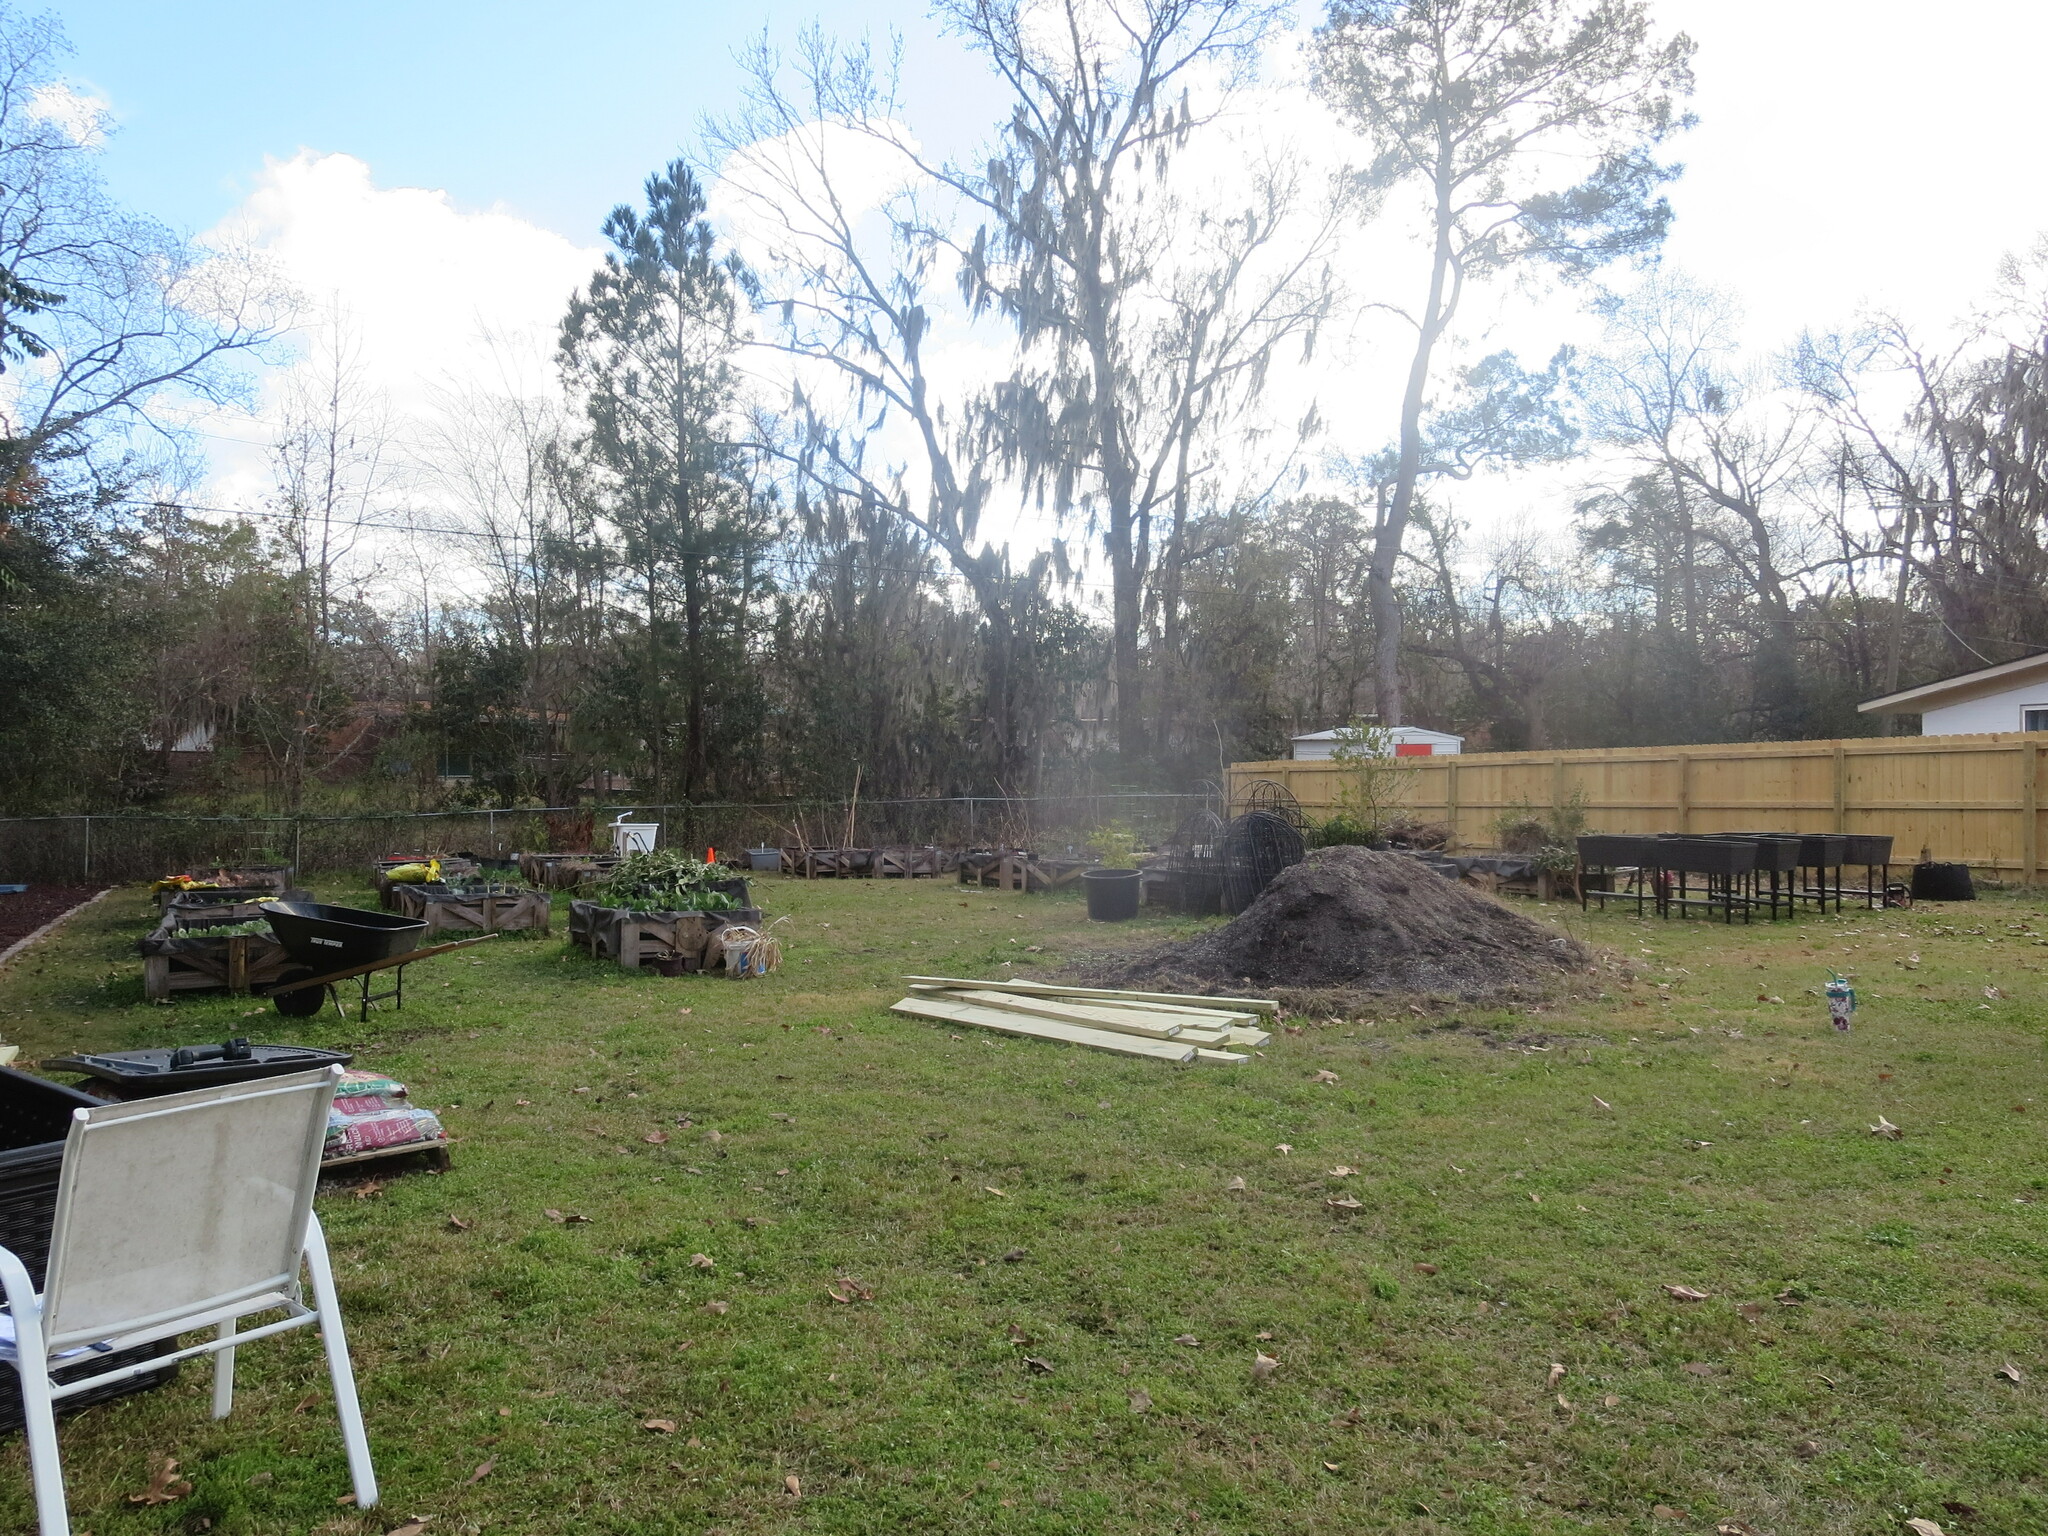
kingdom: Plantae
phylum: Tracheophyta
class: Liliopsida
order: Poales
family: Bromeliaceae
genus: Tillandsia
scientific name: Tillandsia usneoides
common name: Spanish moss
